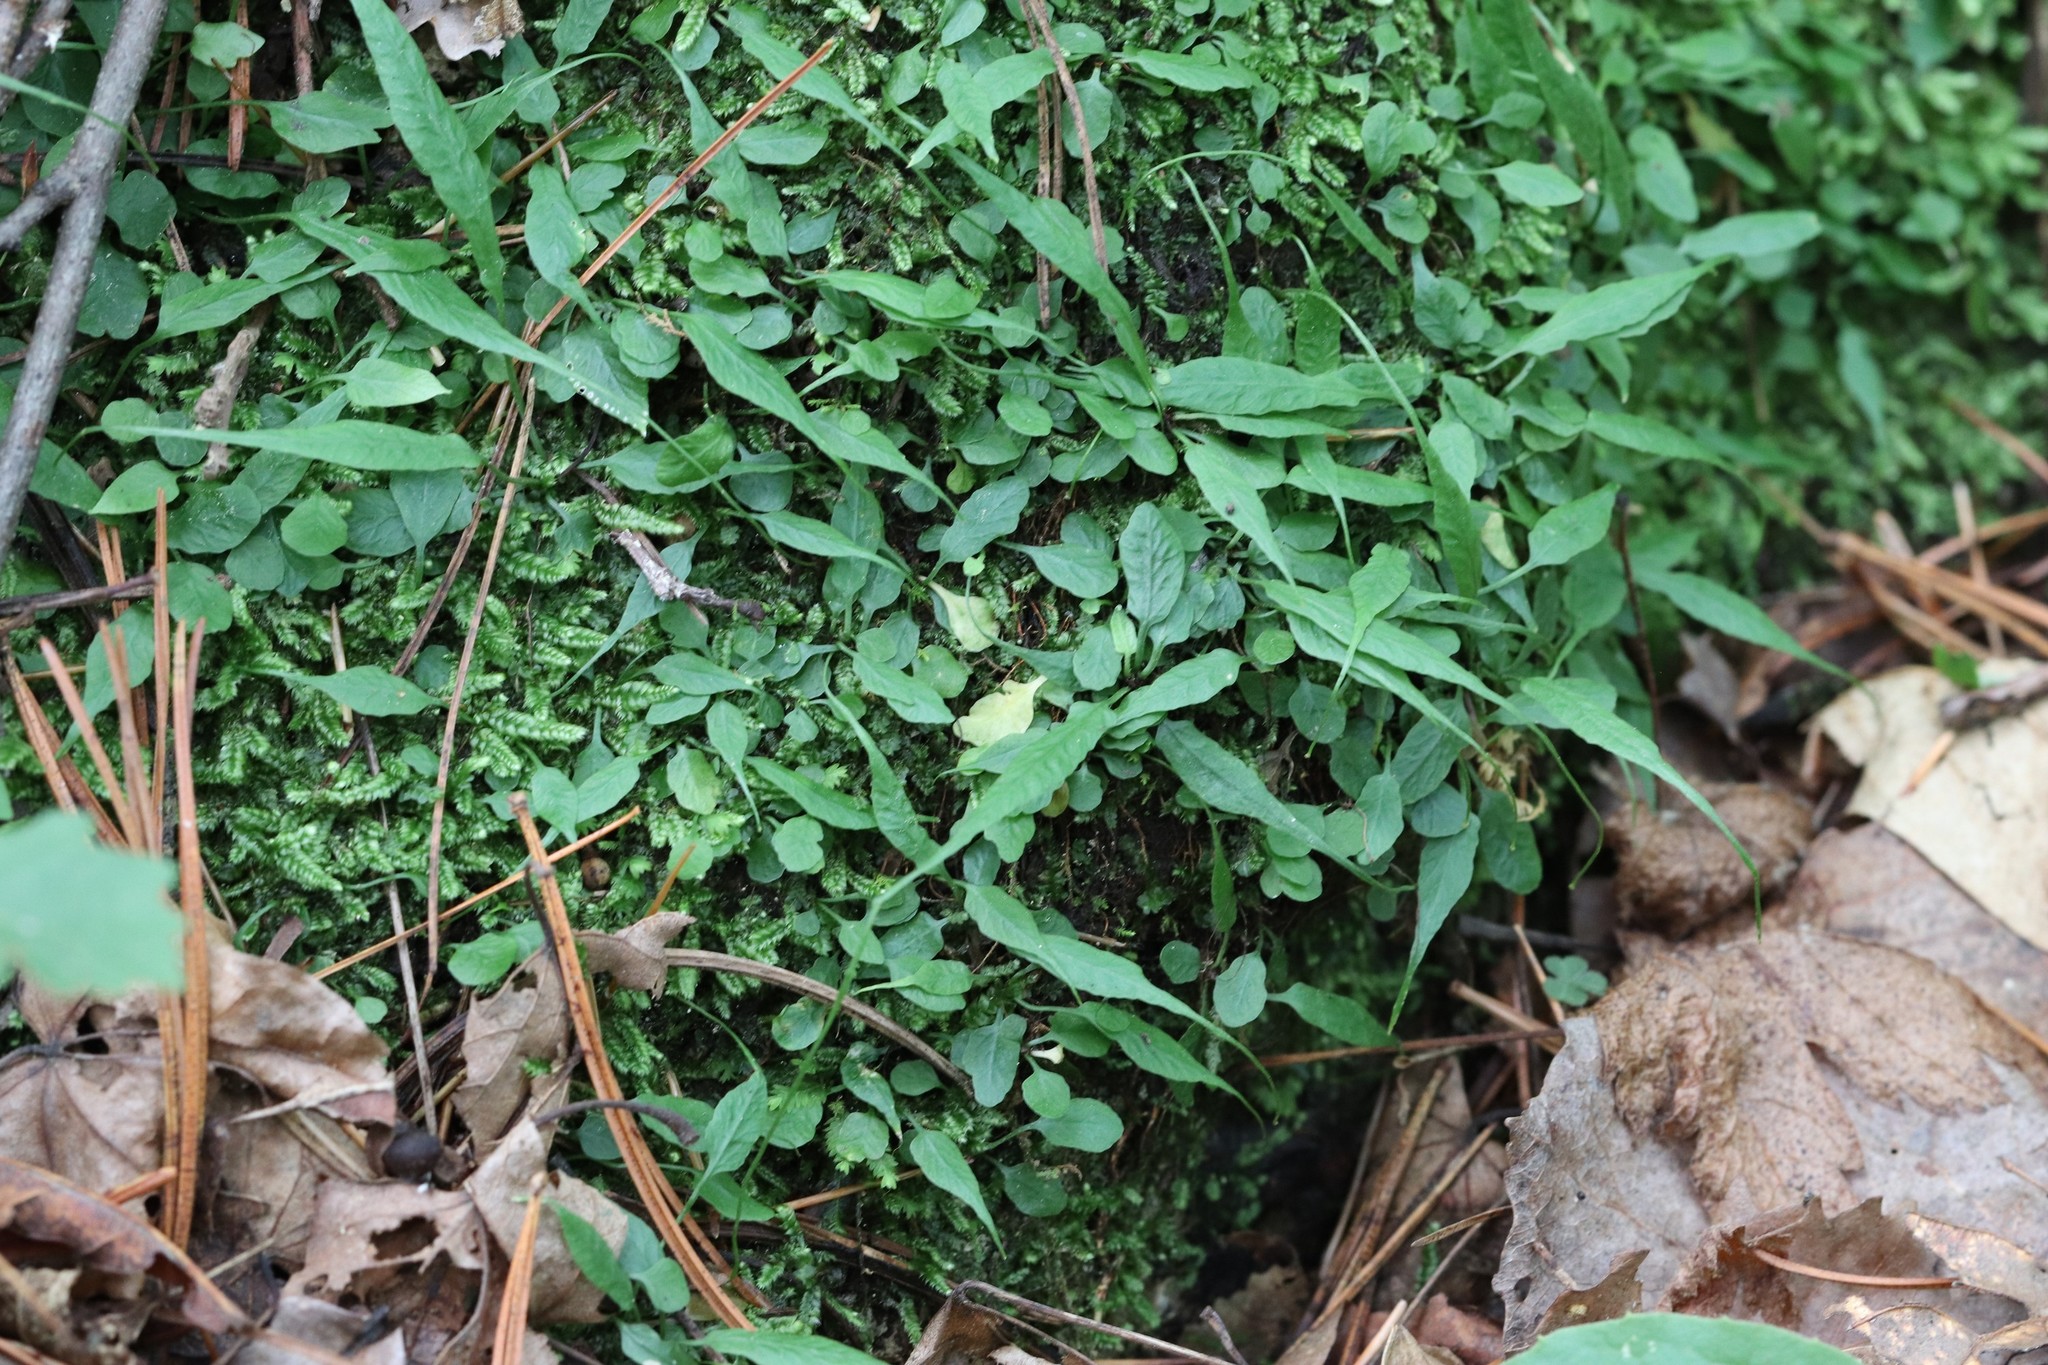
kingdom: Plantae
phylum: Tracheophyta
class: Polypodiopsida
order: Polypodiales
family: Aspleniaceae
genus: Asplenium
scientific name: Asplenium ruprechtii
